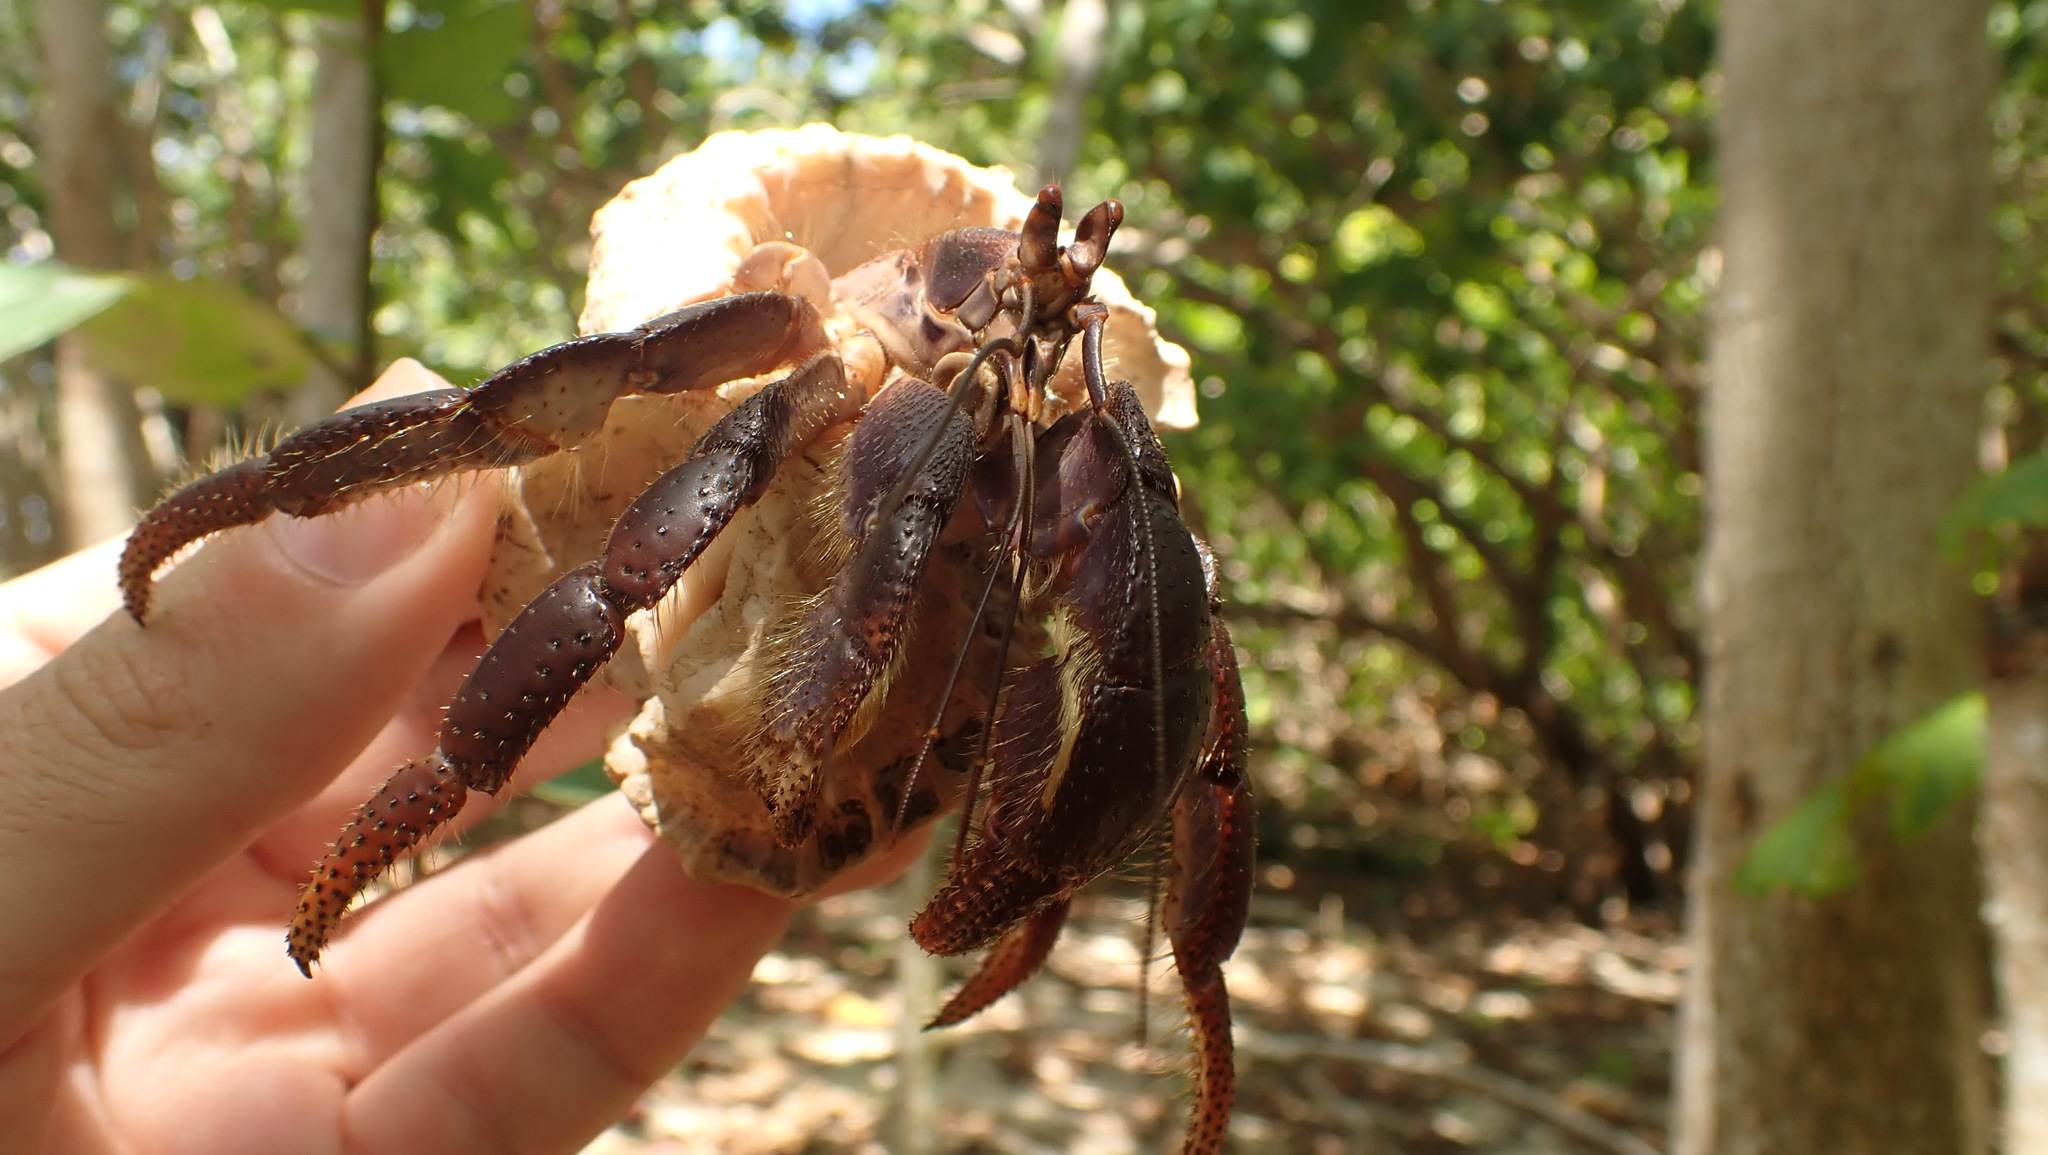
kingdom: Animalia
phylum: Arthropoda
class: Malacostraca
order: Decapoda
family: Coenobitidae
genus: Coenobita
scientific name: Coenobita clypeatus
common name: Caribbean hermit crab
